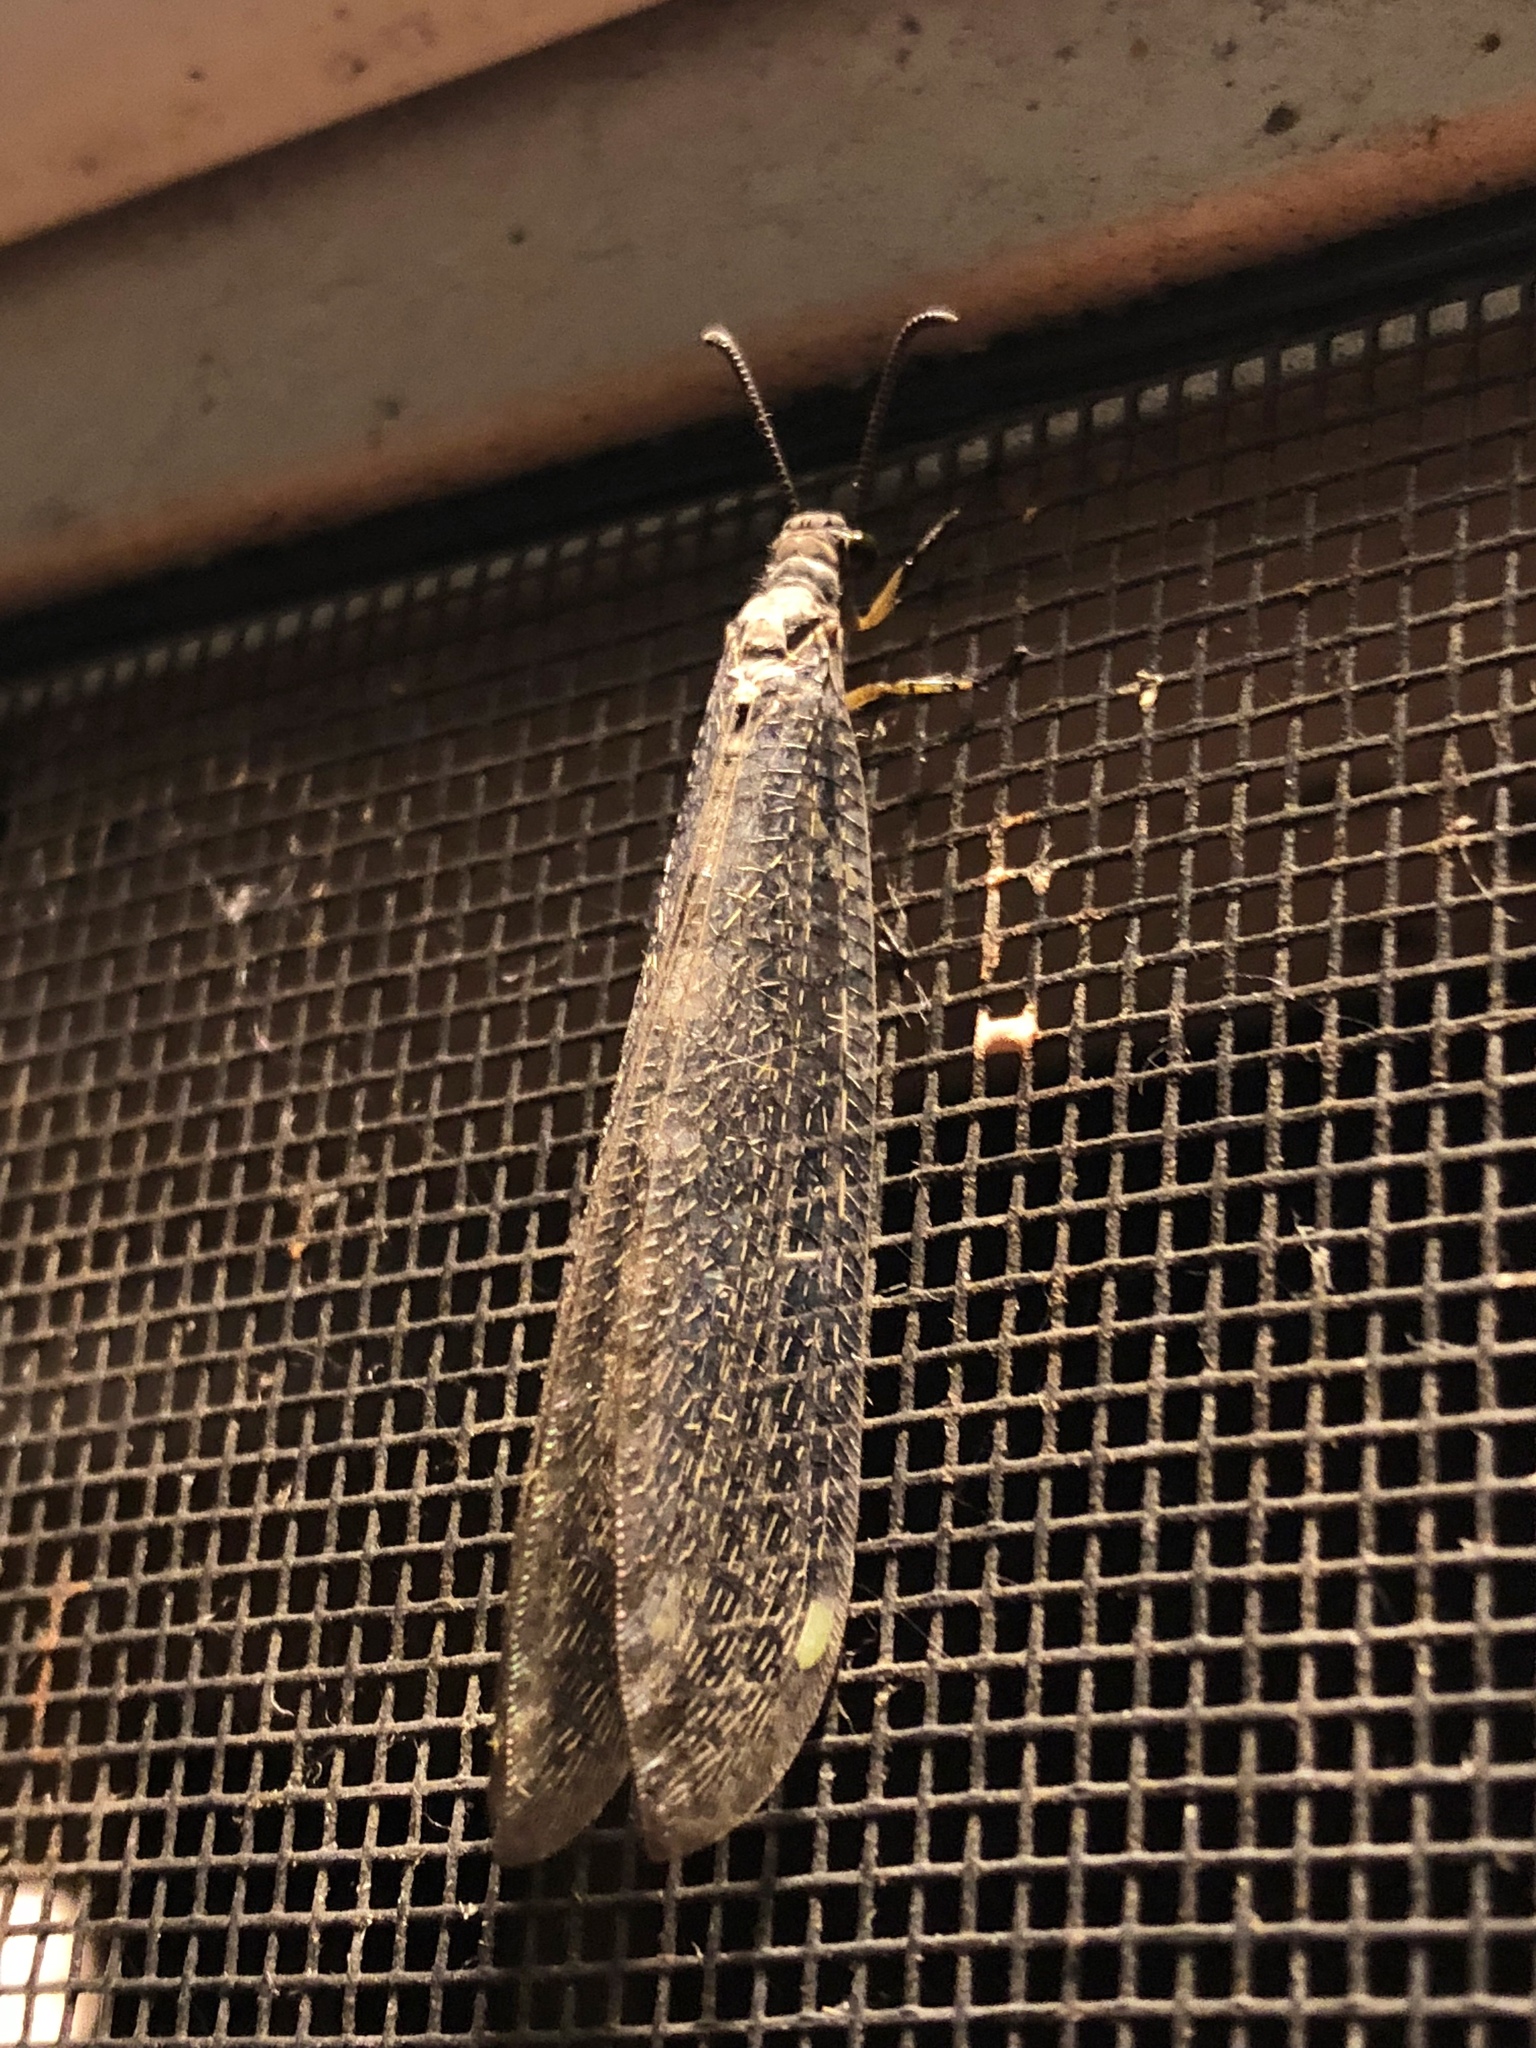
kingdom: Animalia
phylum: Arthropoda
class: Insecta
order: Neuroptera
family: Myrmeleontidae
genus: Myrmeleon
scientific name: Myrmeleon immaculatus
